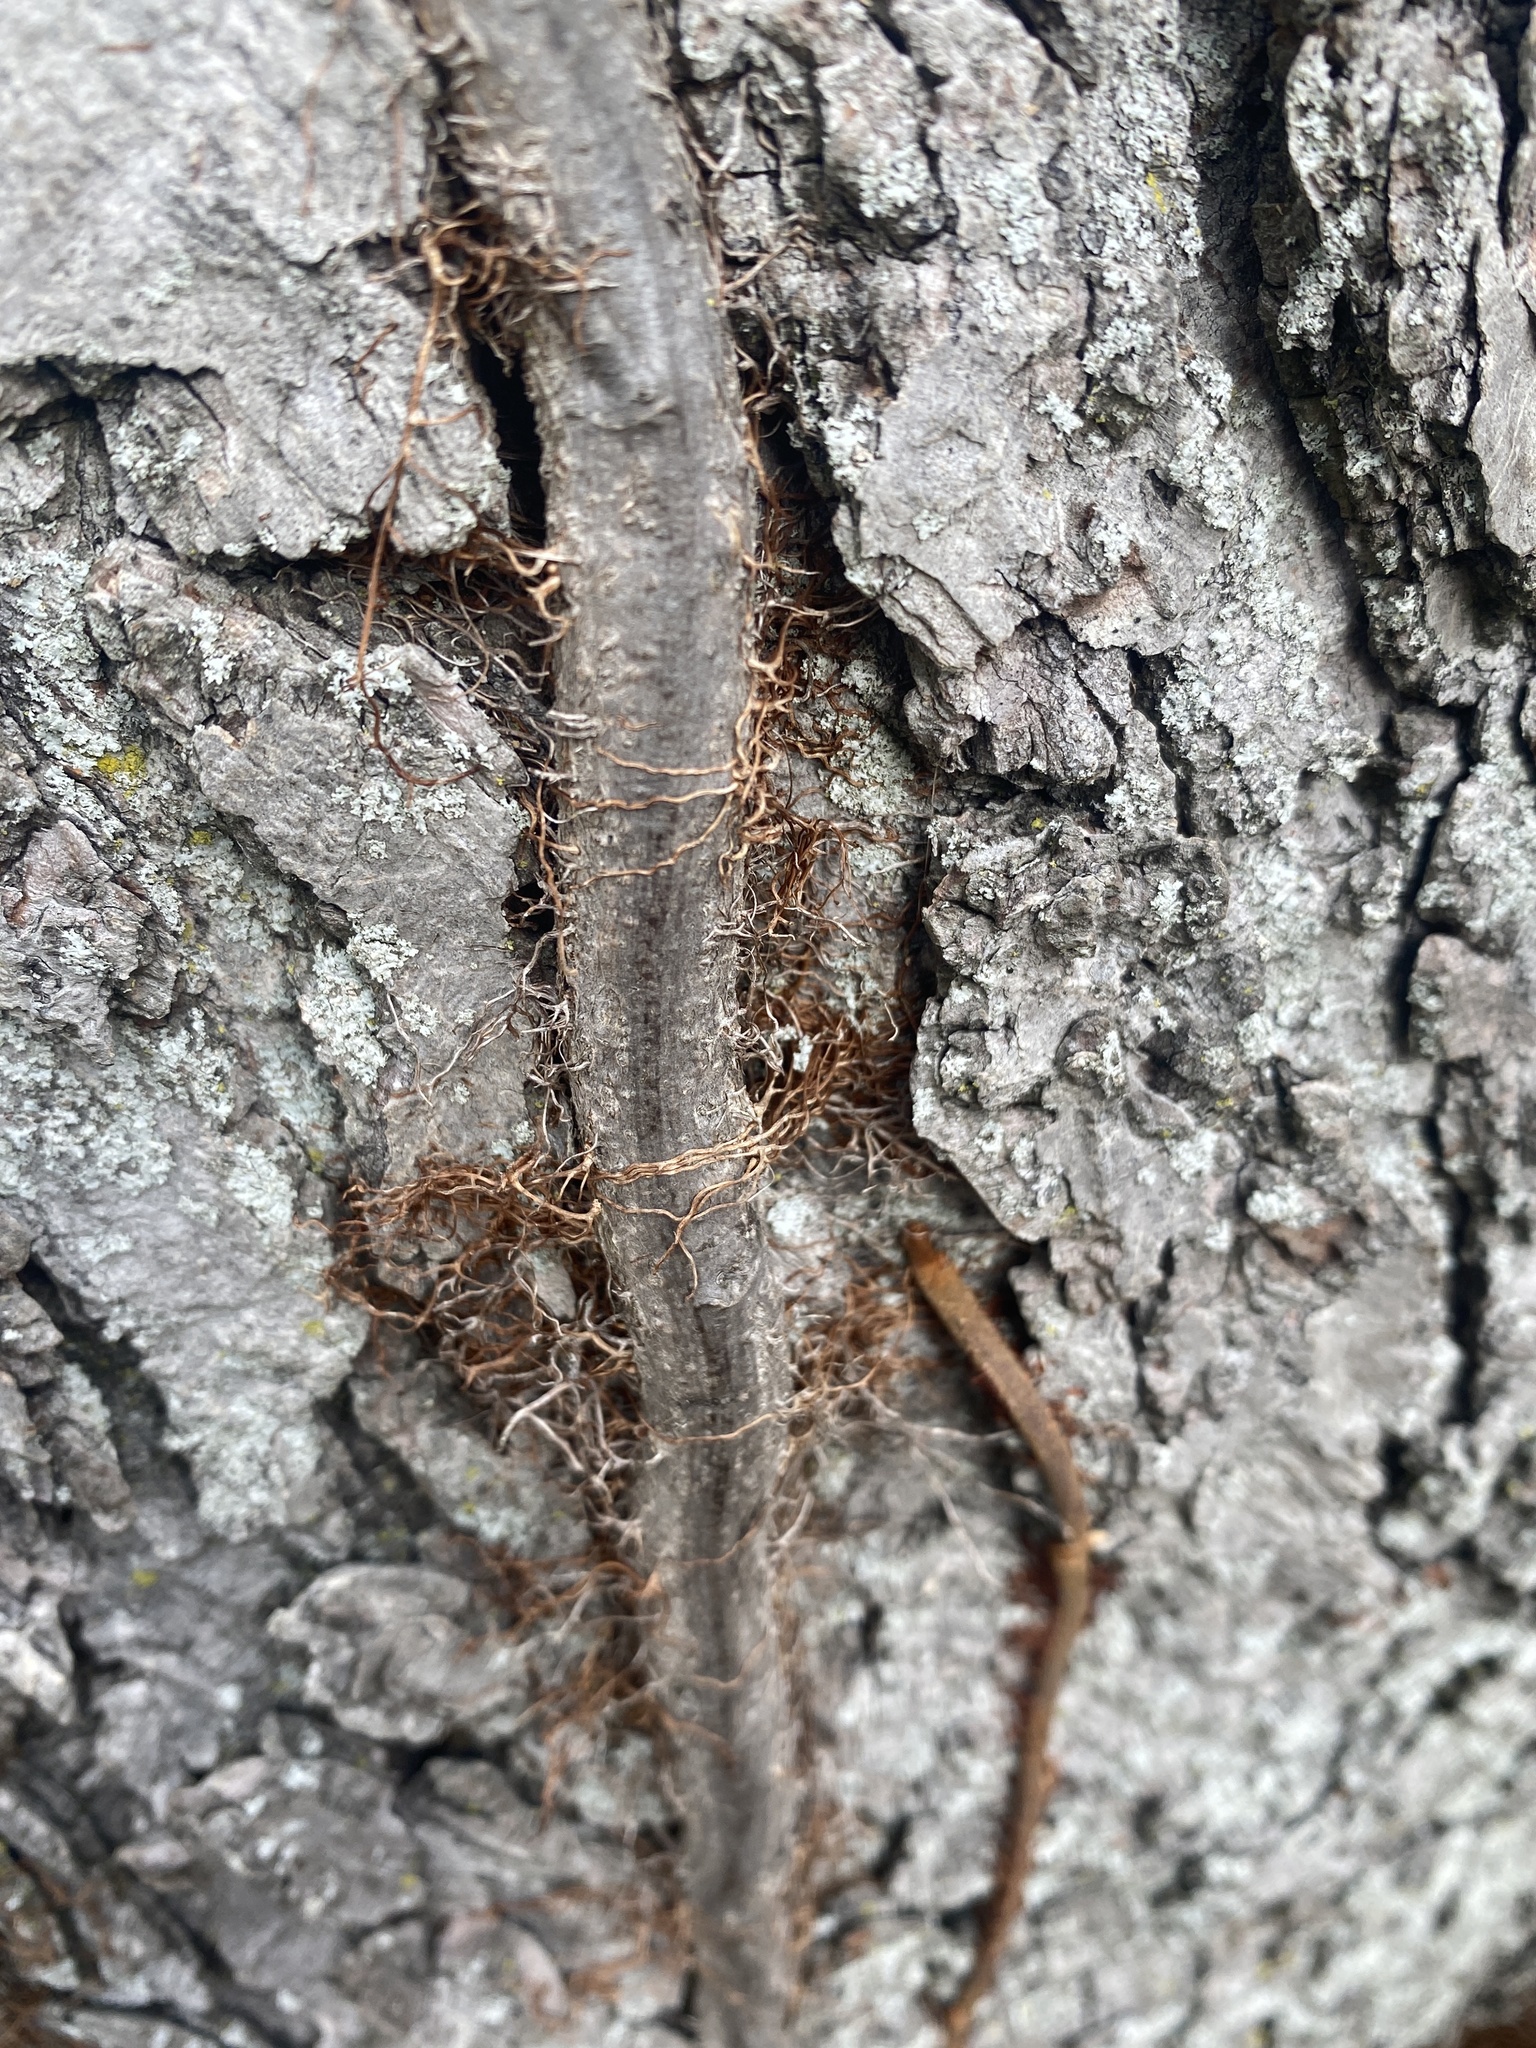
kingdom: Plantae
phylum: Tracheophyta
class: Magnoliopsida
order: Sapindales
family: Anacardiaceae
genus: Toxicodendron
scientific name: Toxicodendron radicans
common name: Poison ivy
